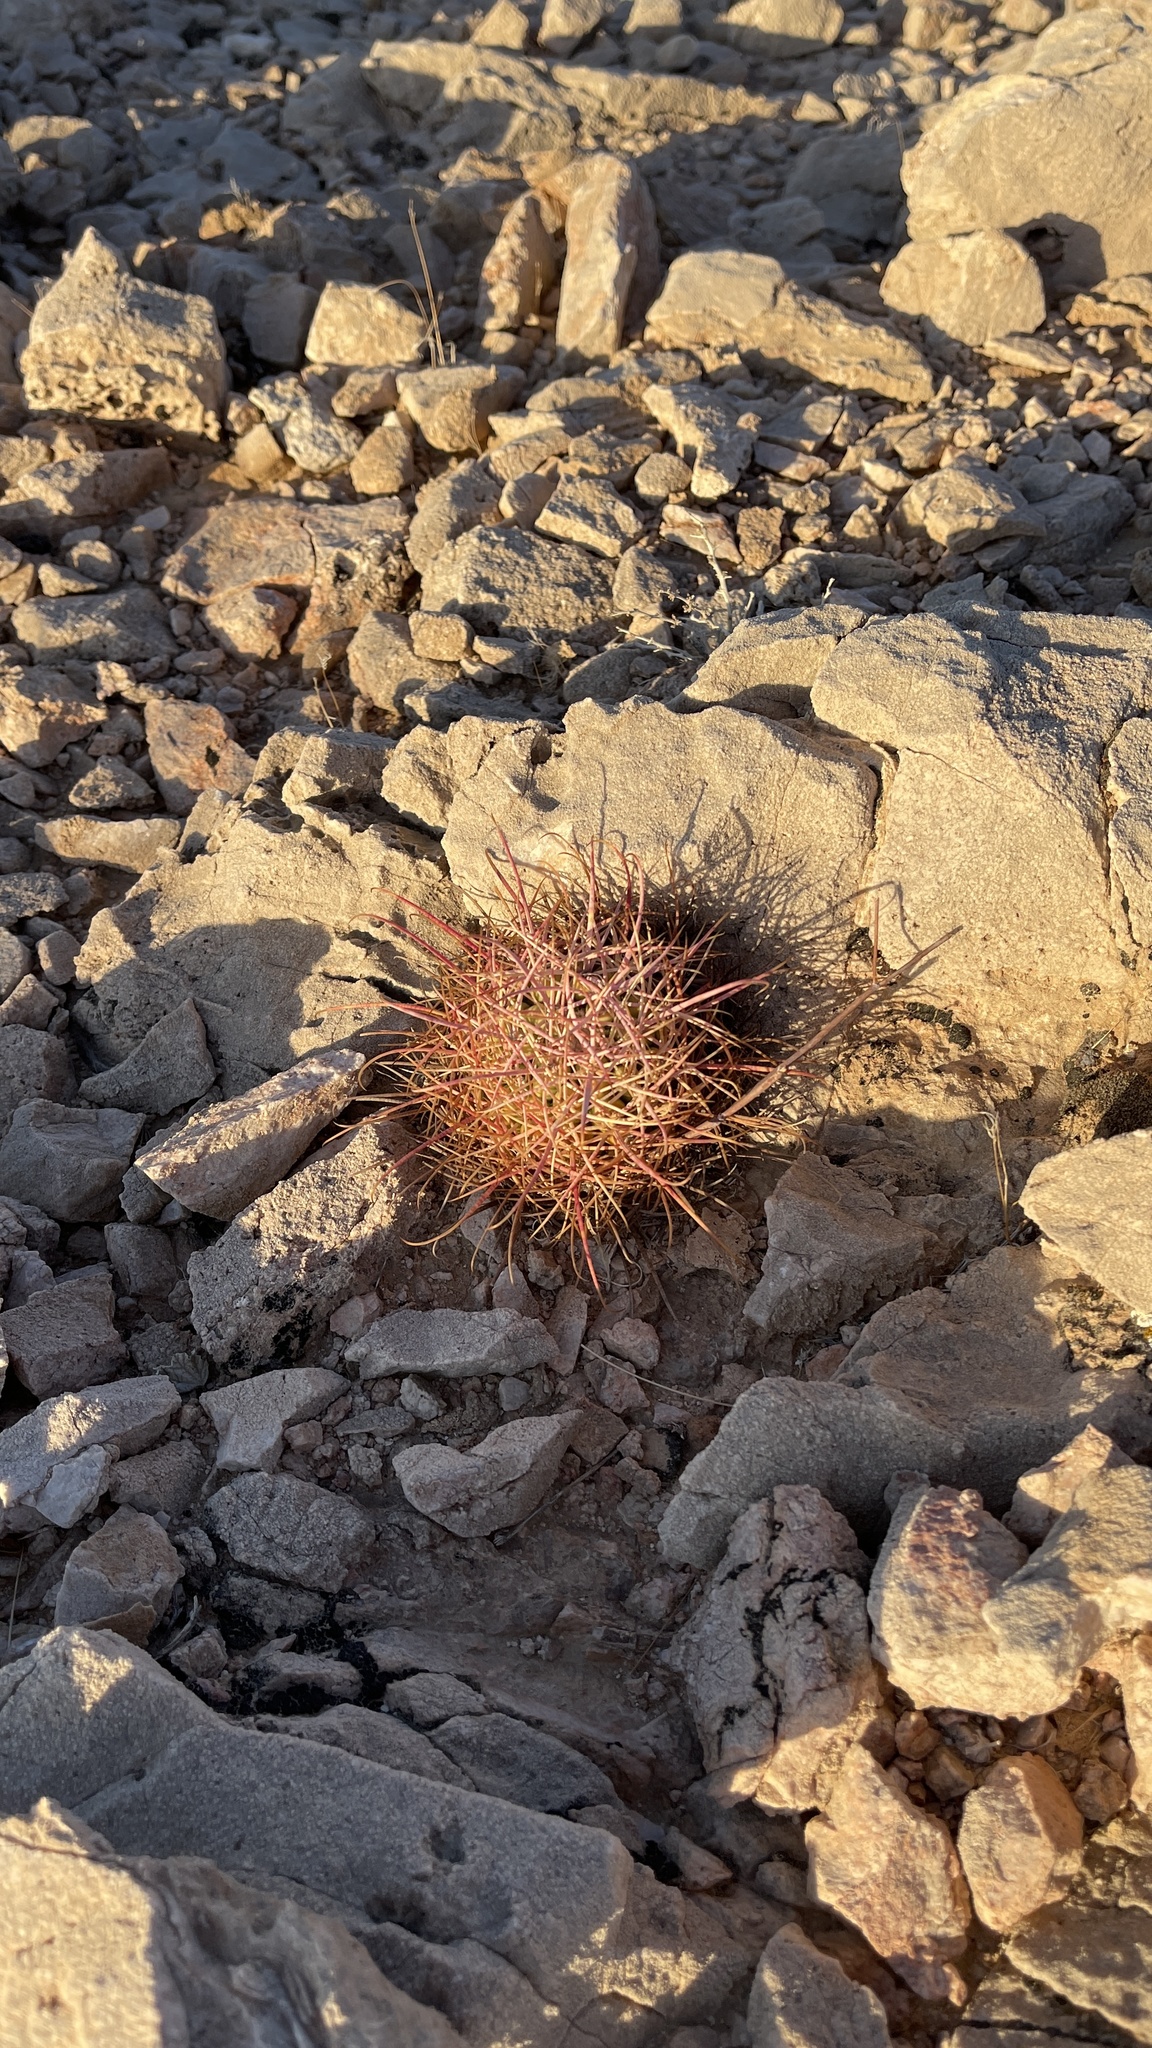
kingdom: Plantae
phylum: Tracheophyta
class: Magnoliopsida
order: Caryophyllales
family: Cactaceae
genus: Ferocactus
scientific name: Ferocactus cylindraceus
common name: California barrel cactus
